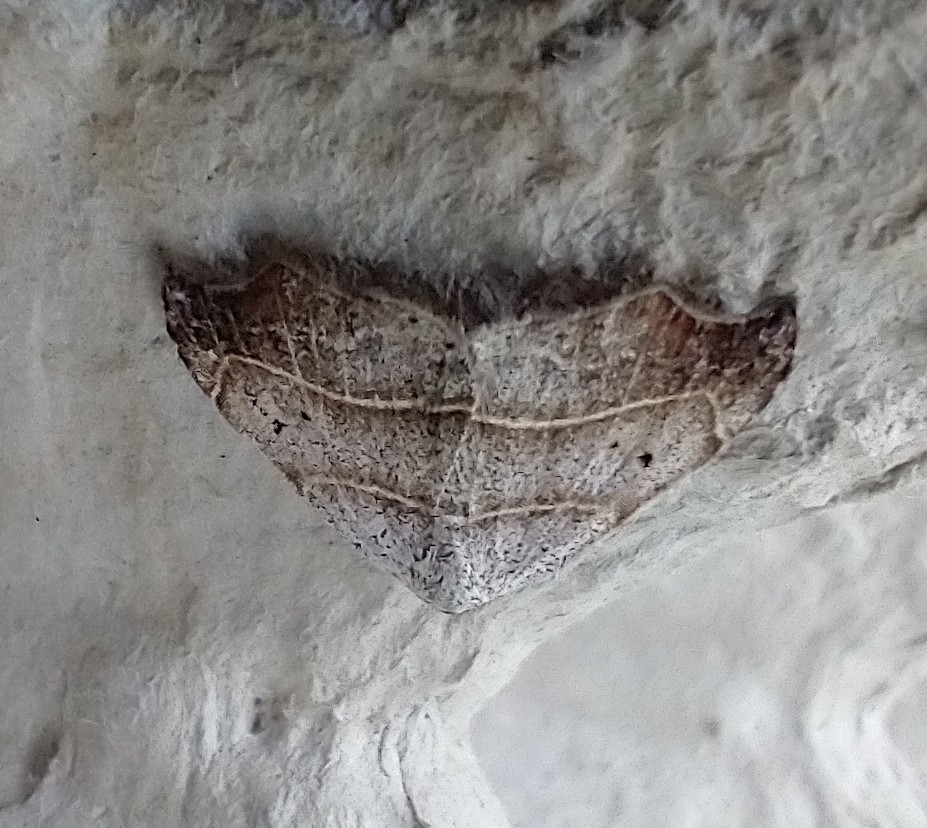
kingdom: Animalia
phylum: Arthropoda
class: Insecta
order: Lepidoptera
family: Erebidae
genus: Laspeyria
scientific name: Laspeyria flexula
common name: Beautiful hook-tip
